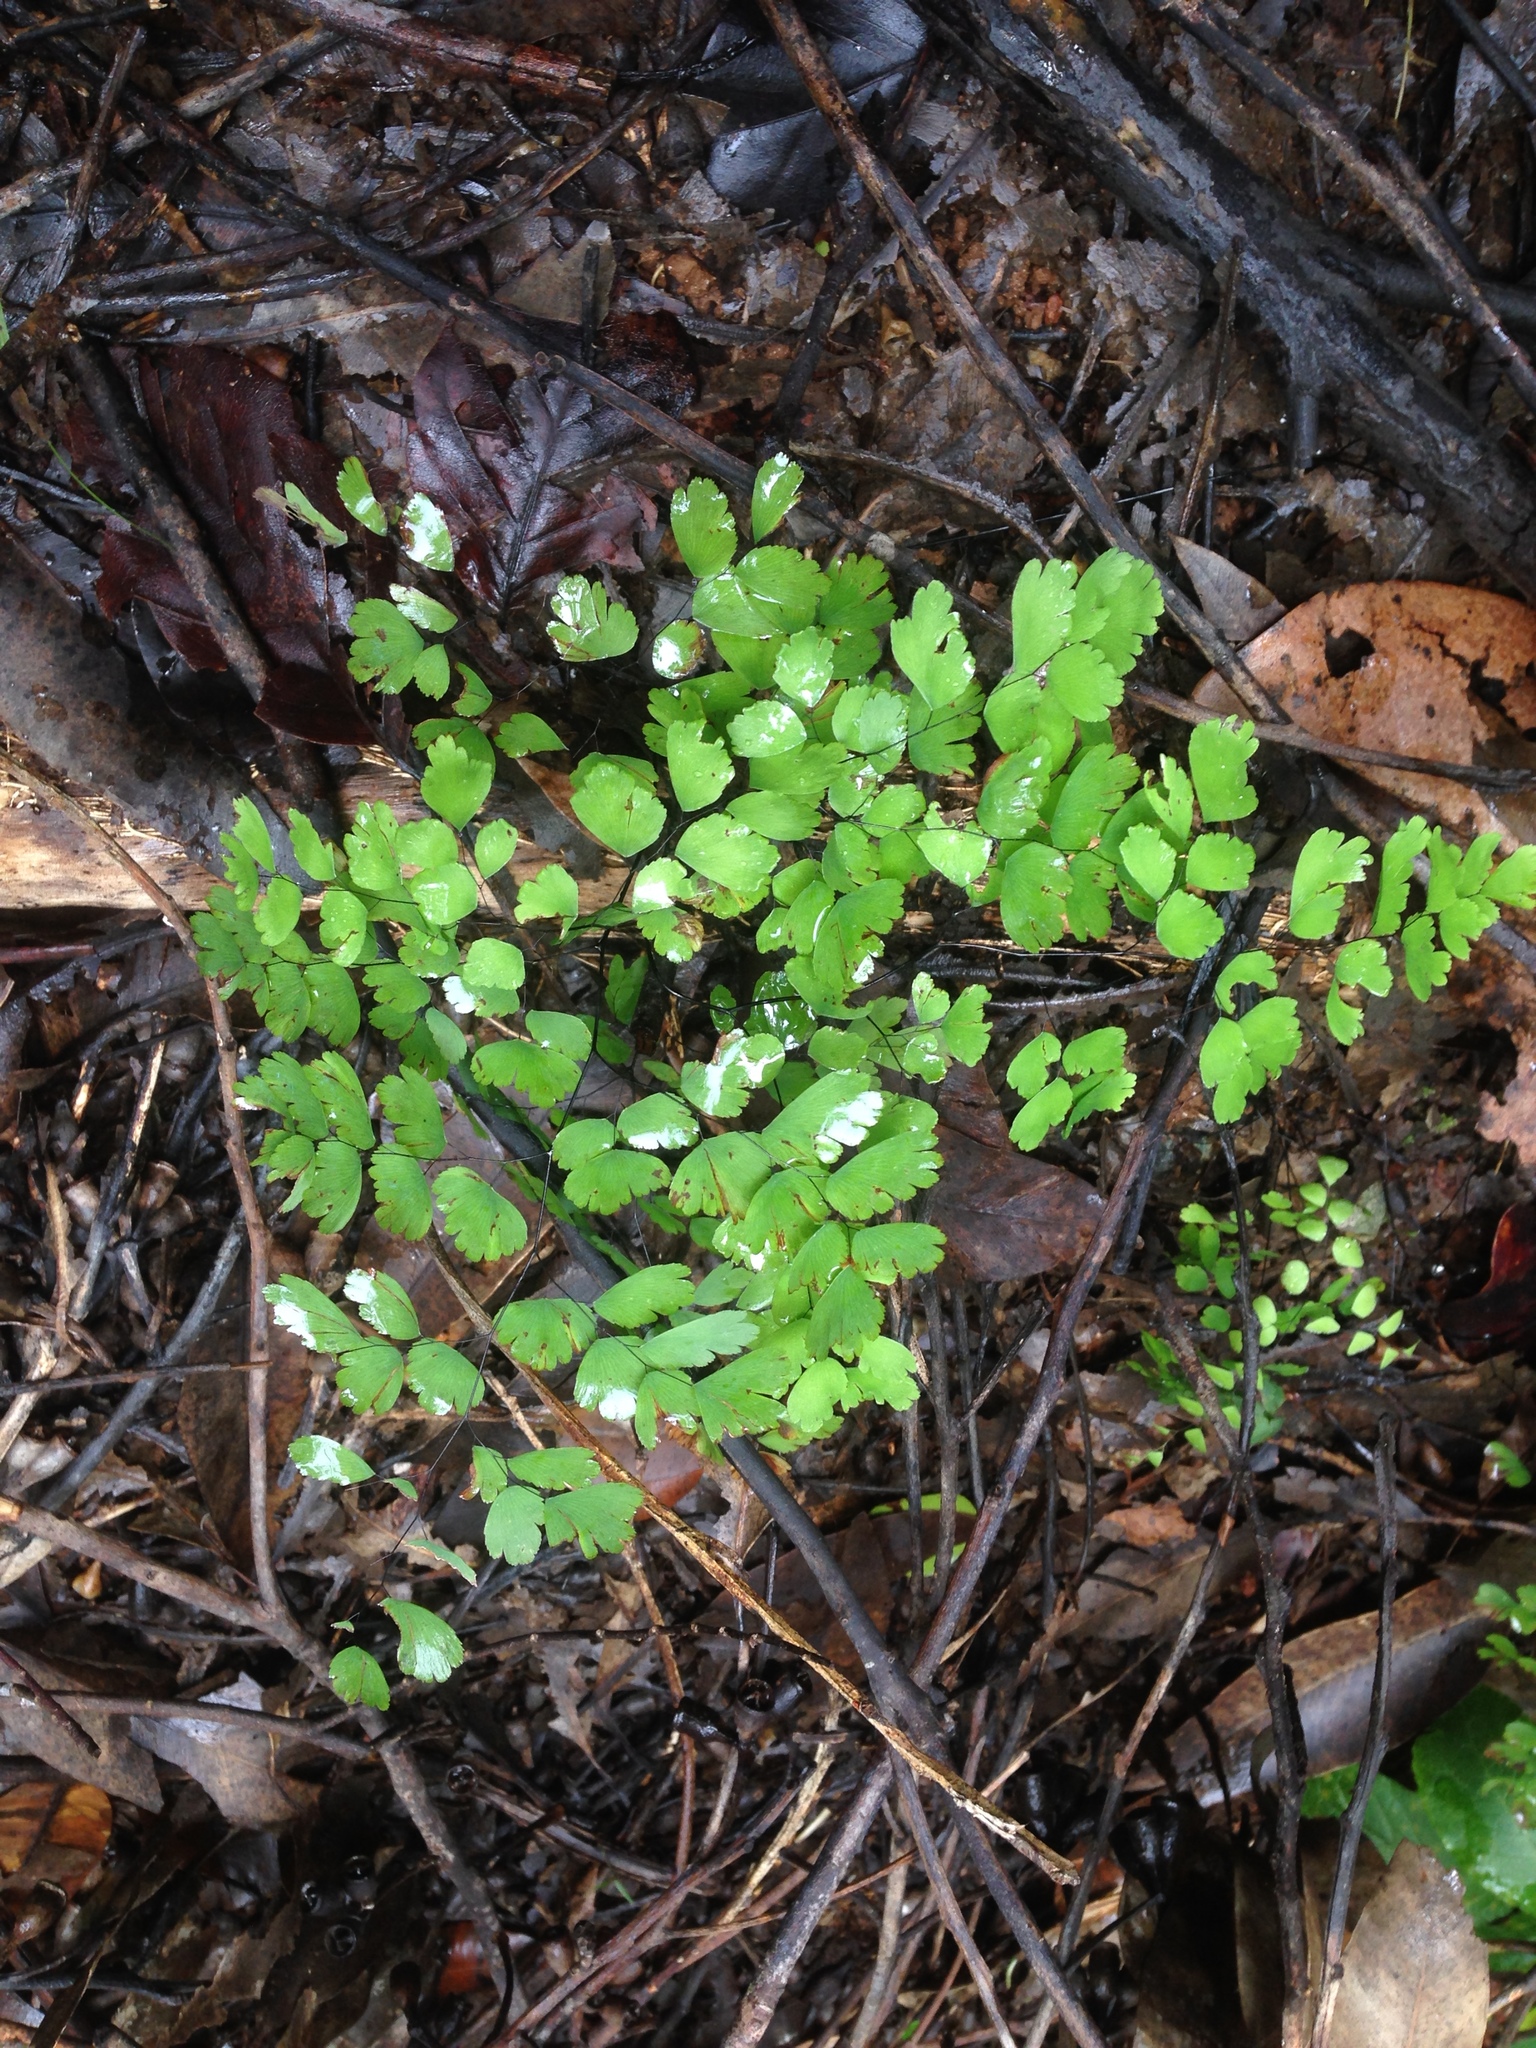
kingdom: Plantae
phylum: Tracheophyta
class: Polypodiopsida
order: Polypodiales
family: Pteridaceae
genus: Adiantum
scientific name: Adiantum fragile
